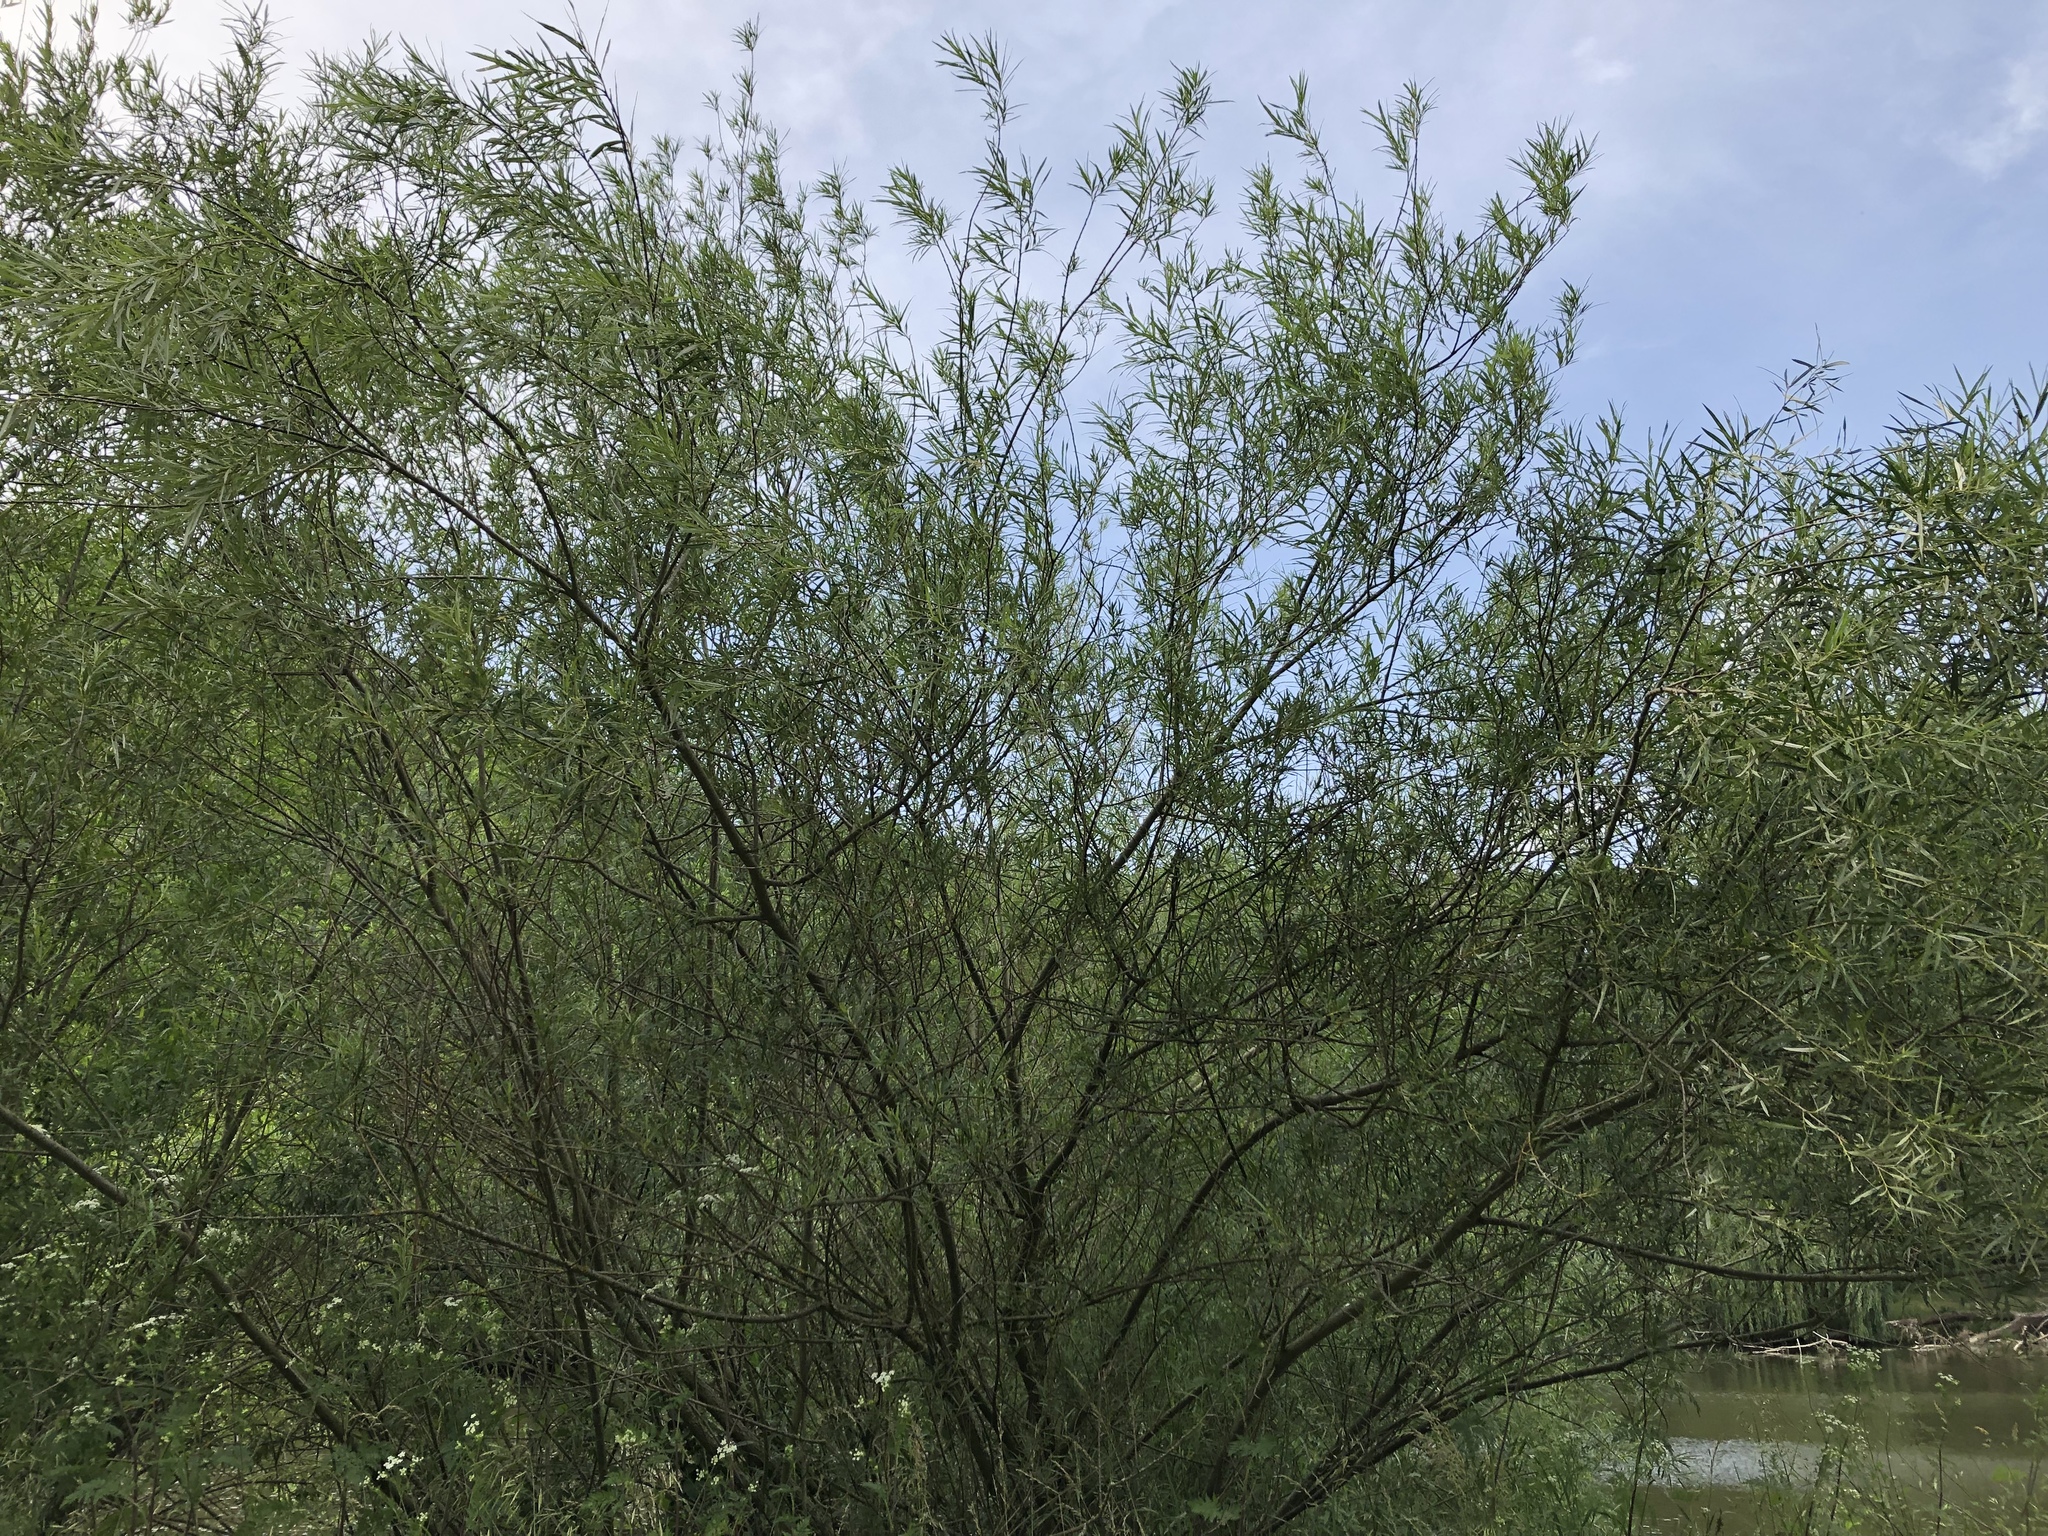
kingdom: Plantae
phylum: Tracheophyta
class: Magnoliopsida
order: Malpighiales
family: Salicaceae
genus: Salix
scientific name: Salix viminalis
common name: Osier
